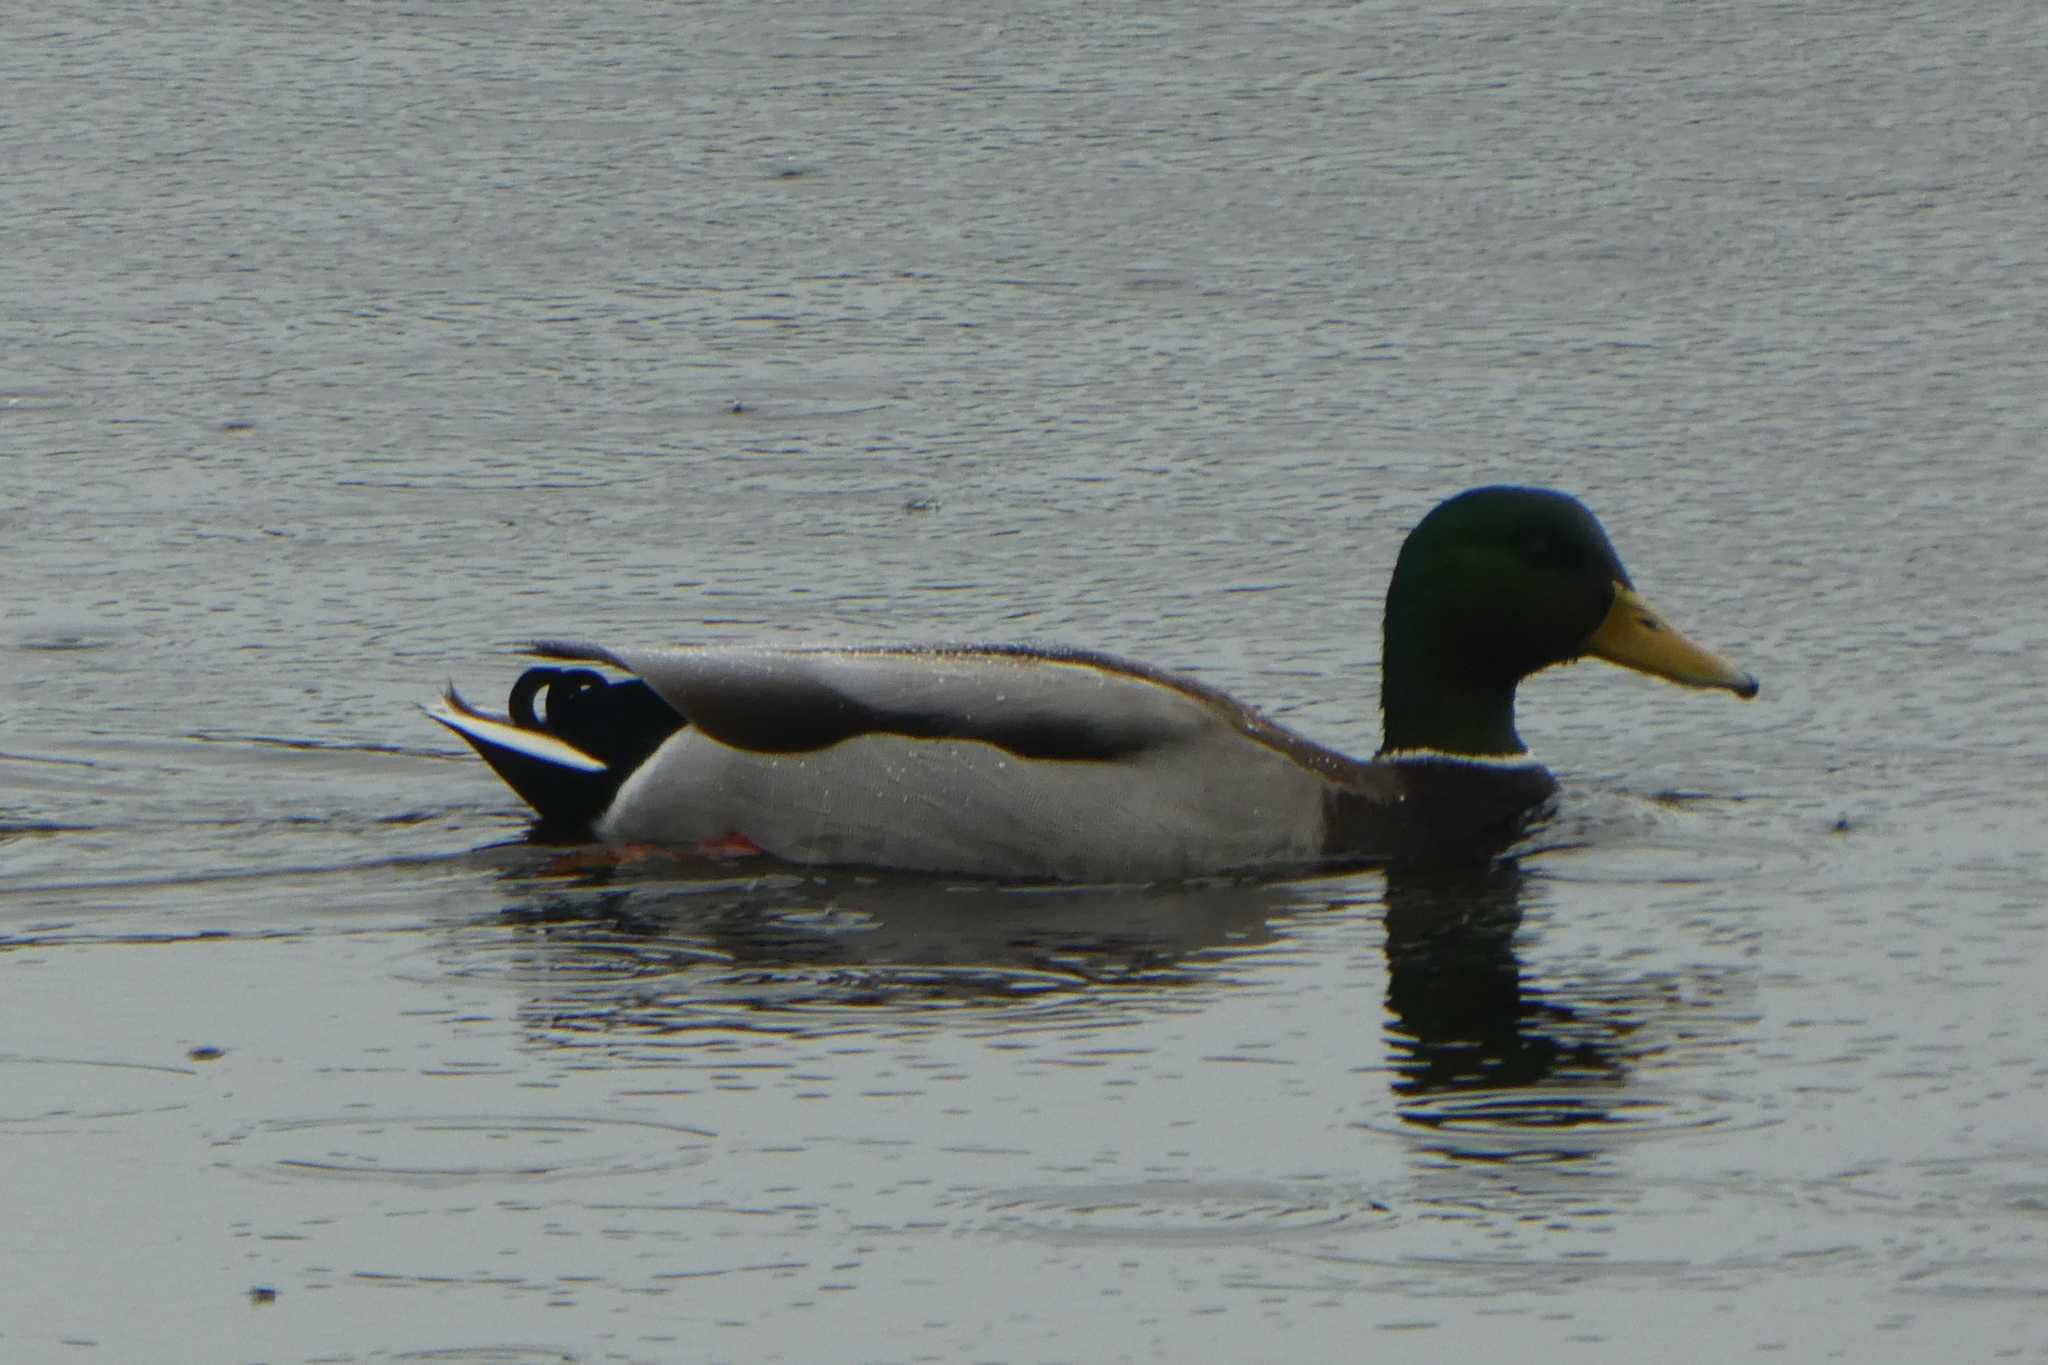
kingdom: Animalia
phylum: Chordata
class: Aves
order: Anseriformes
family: Anatidae
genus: Anas
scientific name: Anas platyrhynchos
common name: Mallard
